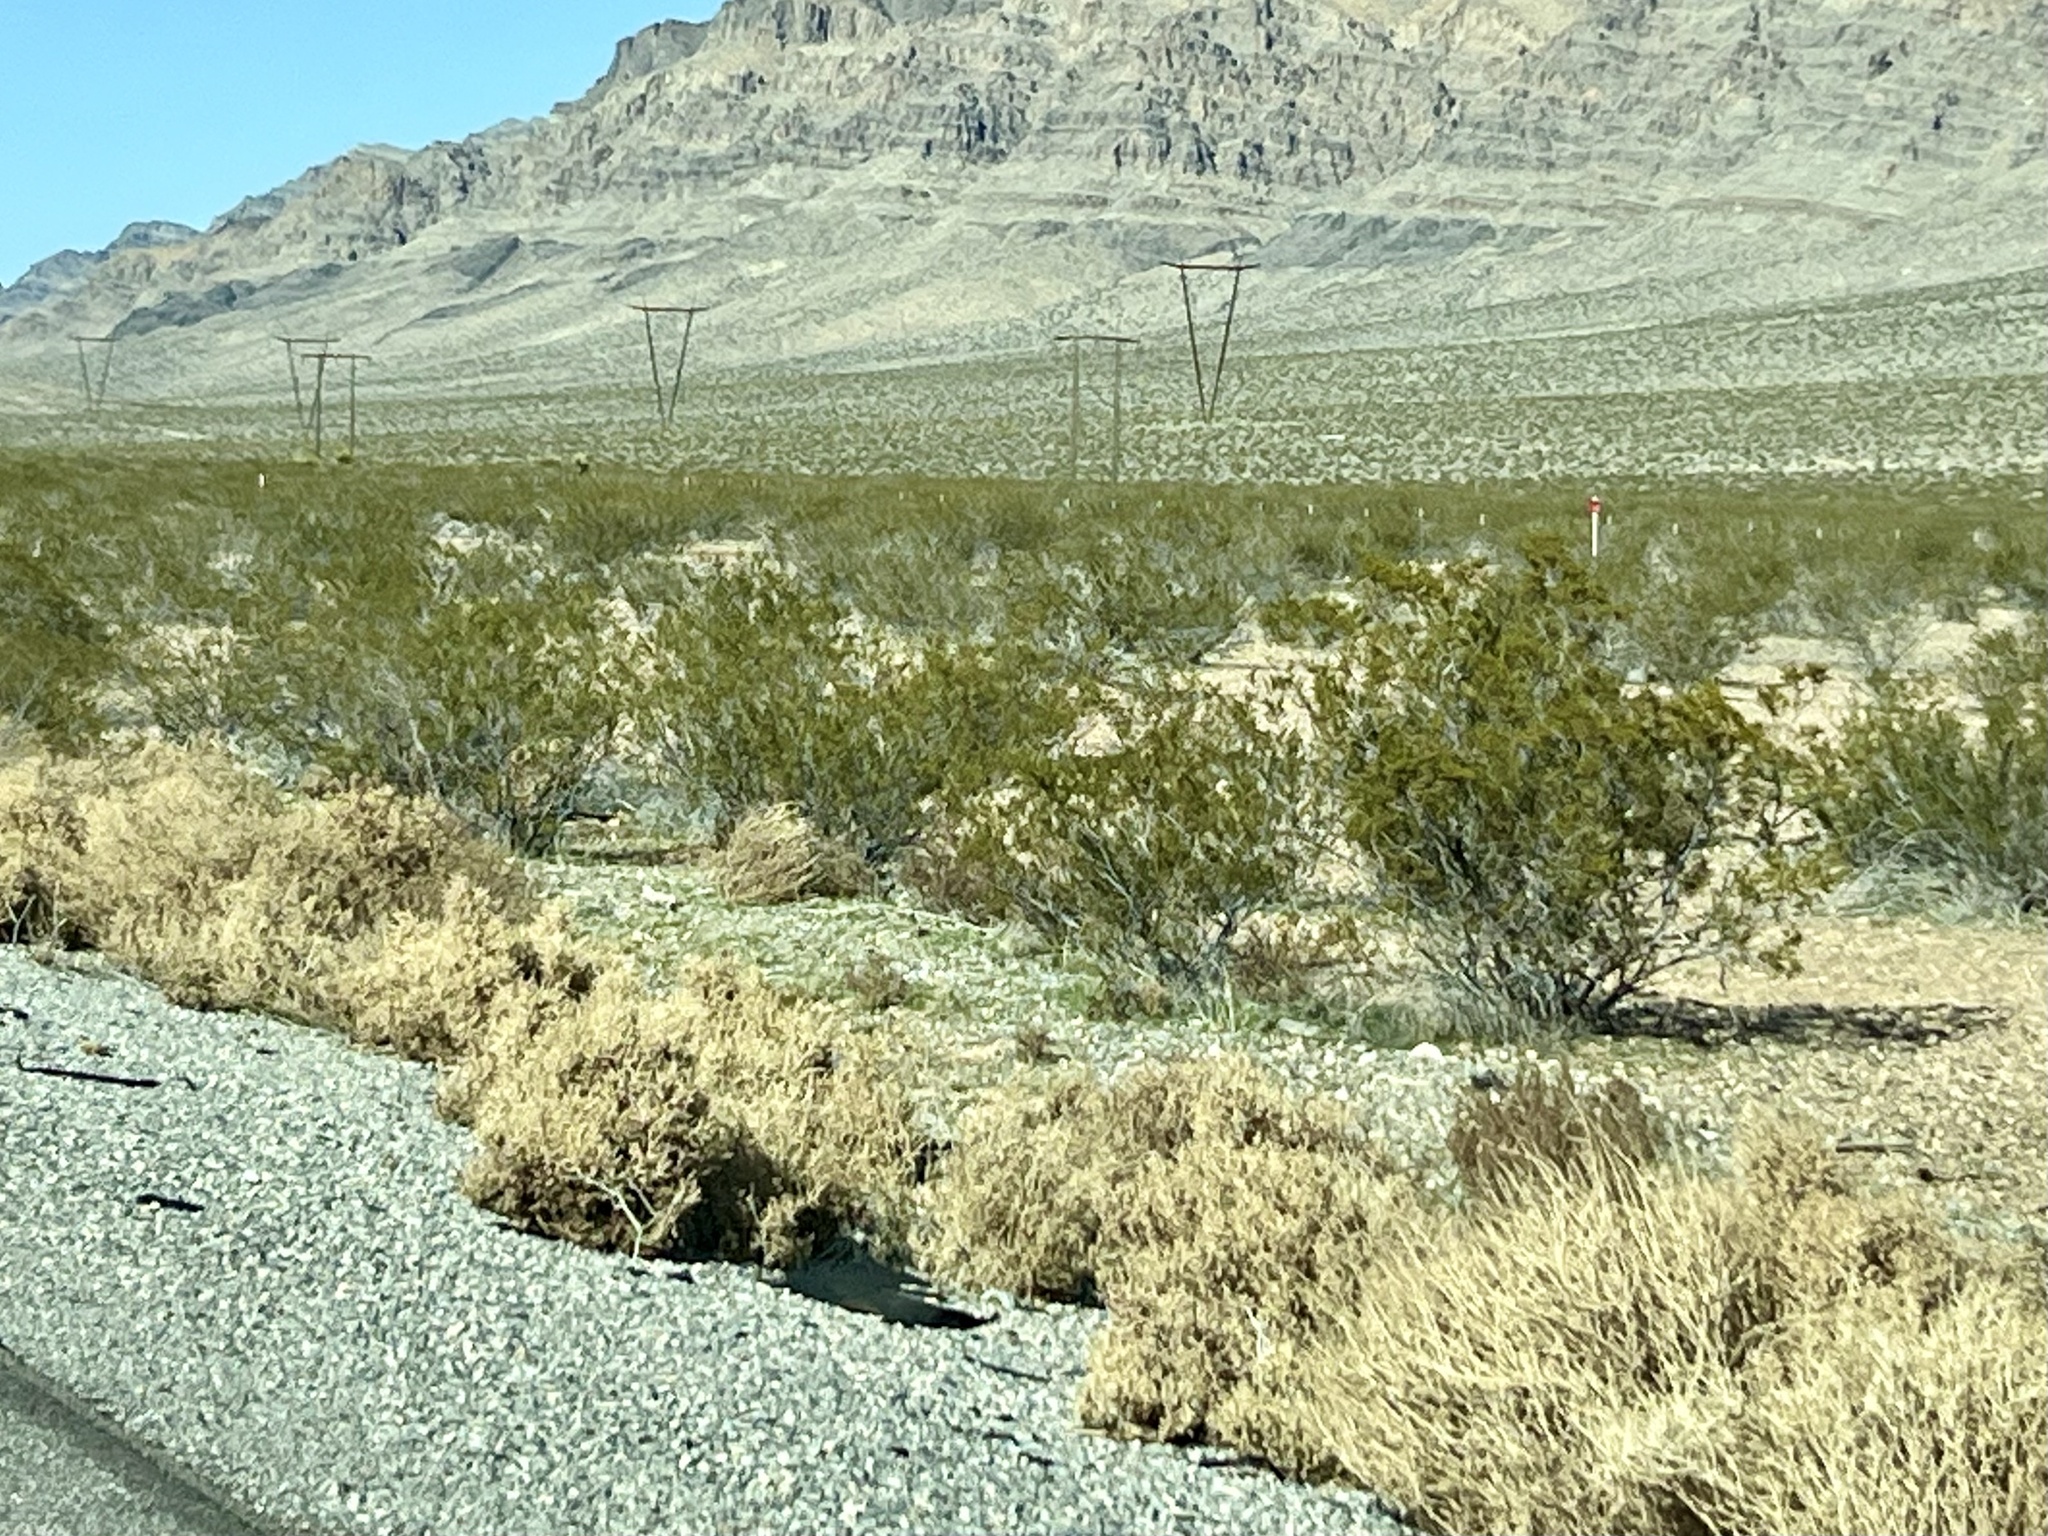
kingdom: Plantae
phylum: Tracheophyta
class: Magnoliopsida
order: Zygophyllales
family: Zygophyllaceae
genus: Larrea
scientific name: Larrea tridentata
